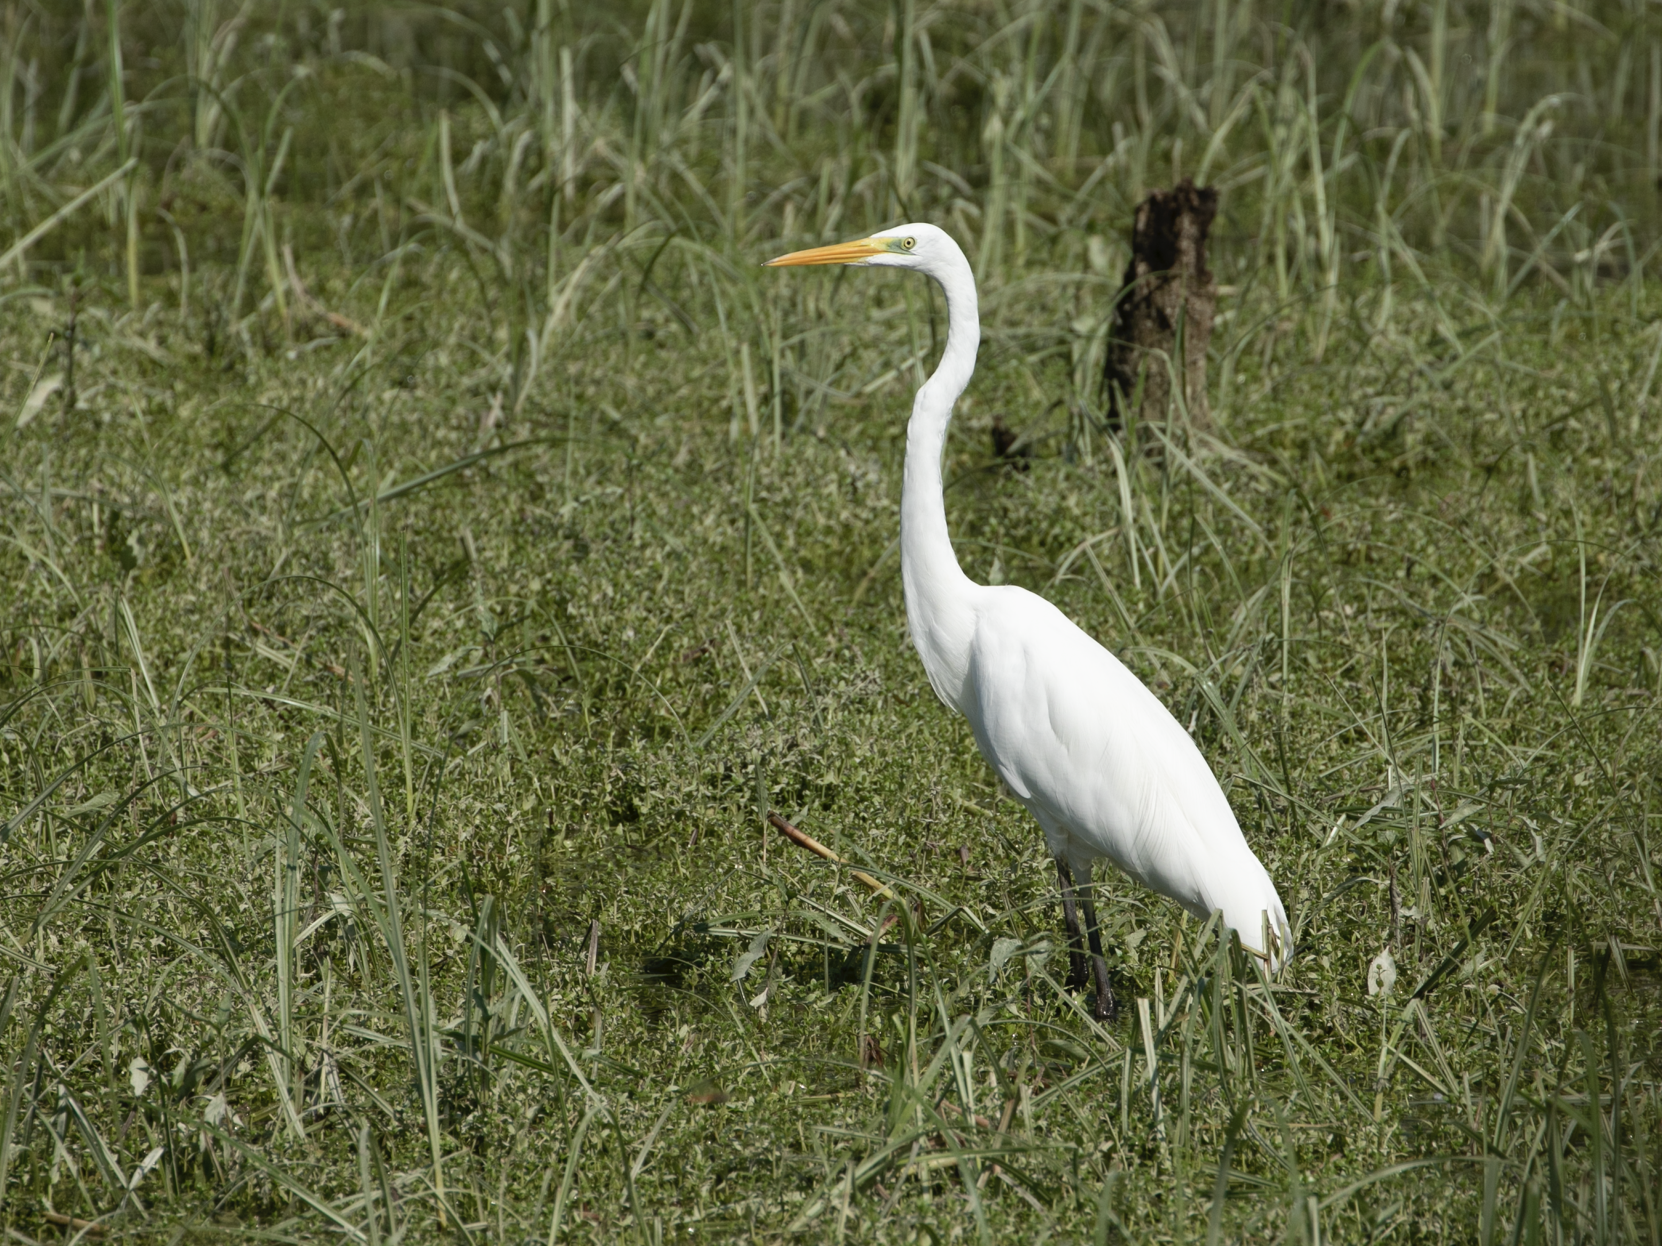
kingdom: Animalia
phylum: Chordata
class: Aves
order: Pelecaniformes
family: Ardeidae
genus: Ardea
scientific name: Ardea alba
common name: Great egret
